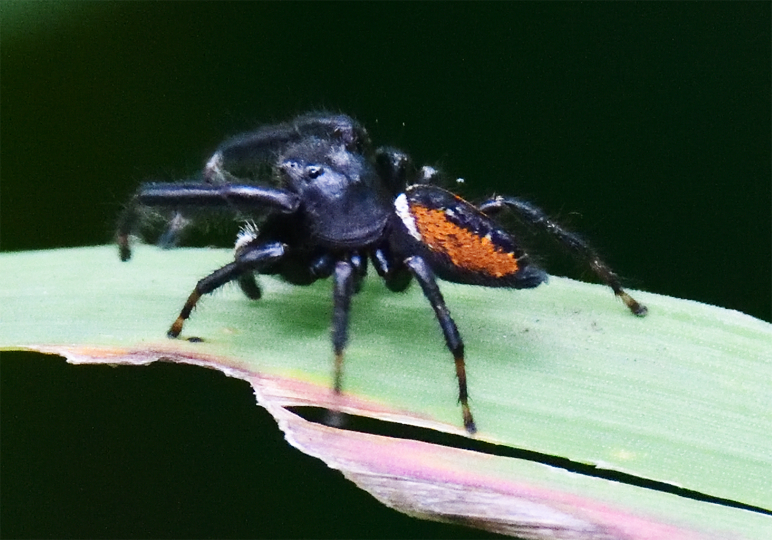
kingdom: Animalia
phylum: Arthropoda
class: Arachnida
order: Araneae
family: Salticidae
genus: Phidippus
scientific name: Phidippus clarus
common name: Brilliant jumping spider
